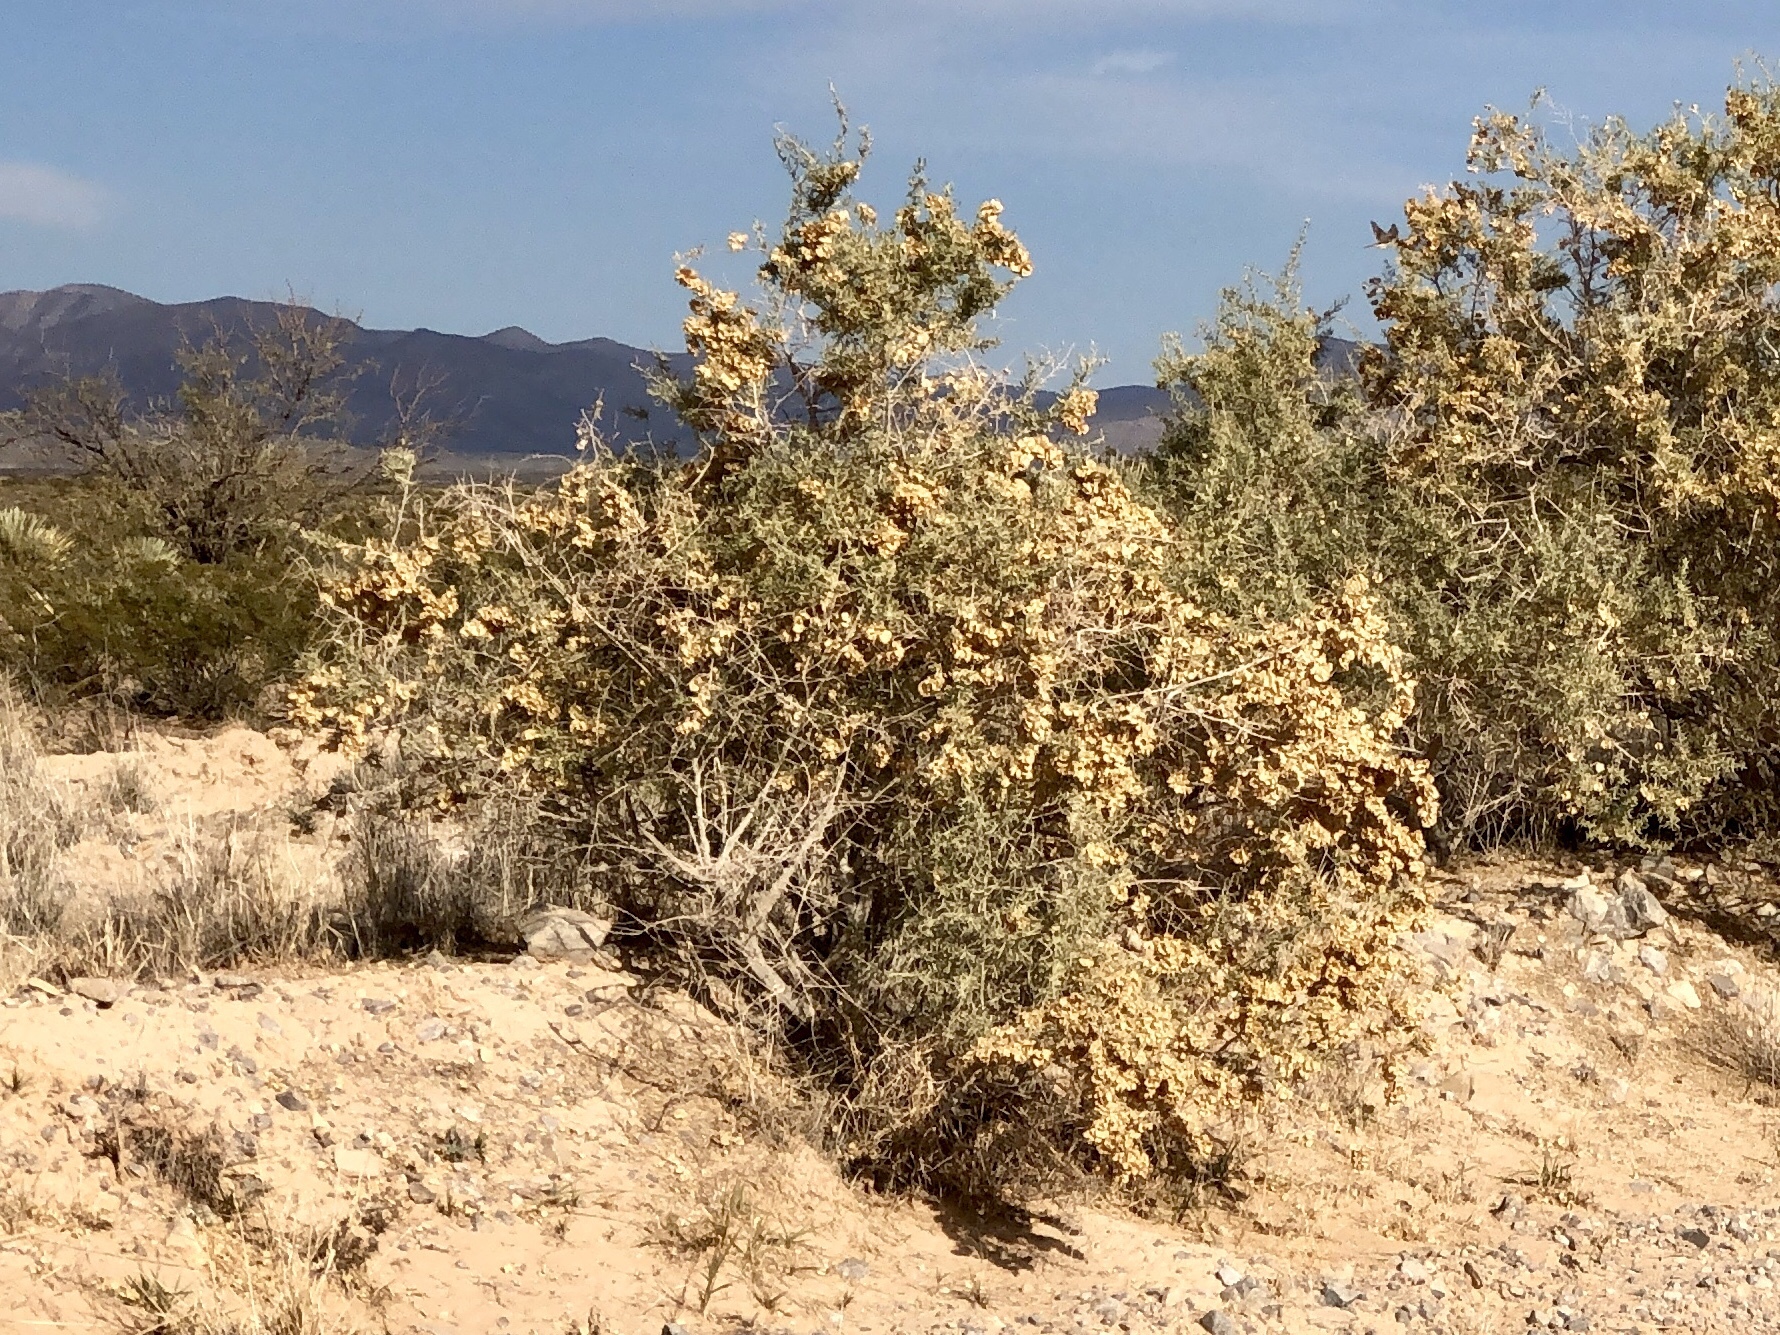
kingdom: Plantae
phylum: Tracheophyta
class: Magnoliopsida
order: Caryophyllales
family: Amaranthaceae
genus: Atriplex
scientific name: Atriplex canescens
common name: Four-wing saltbush
